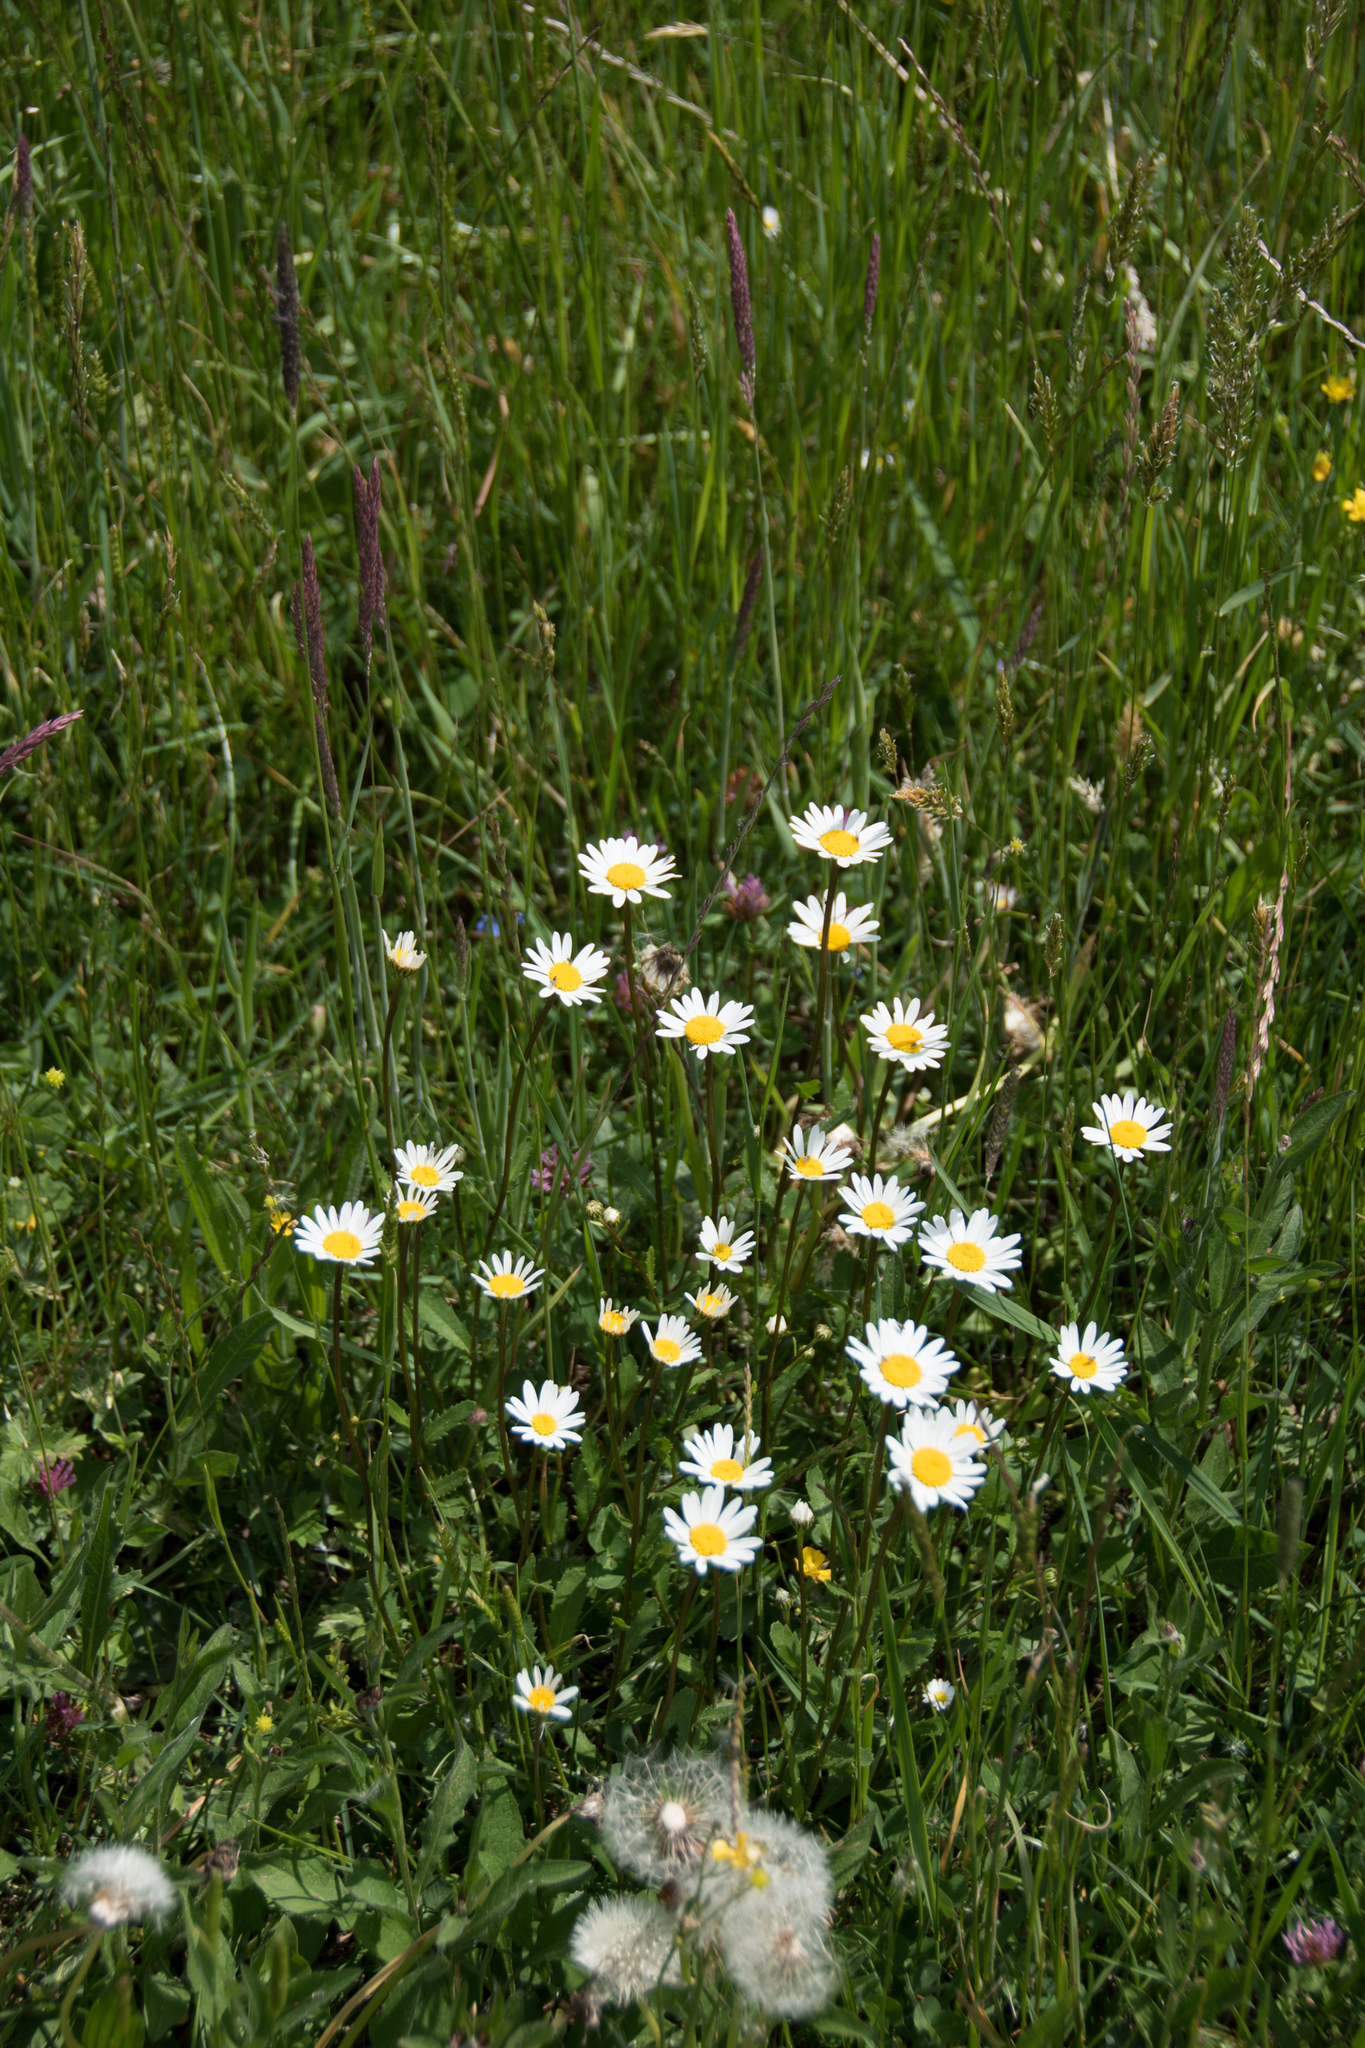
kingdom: Plantae
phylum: Tracheophyta
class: Magnoliopsida
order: Asterales
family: Asteraceae
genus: Leucanthemum
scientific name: Leucanthemum vulgare
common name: Oxeye daisy
